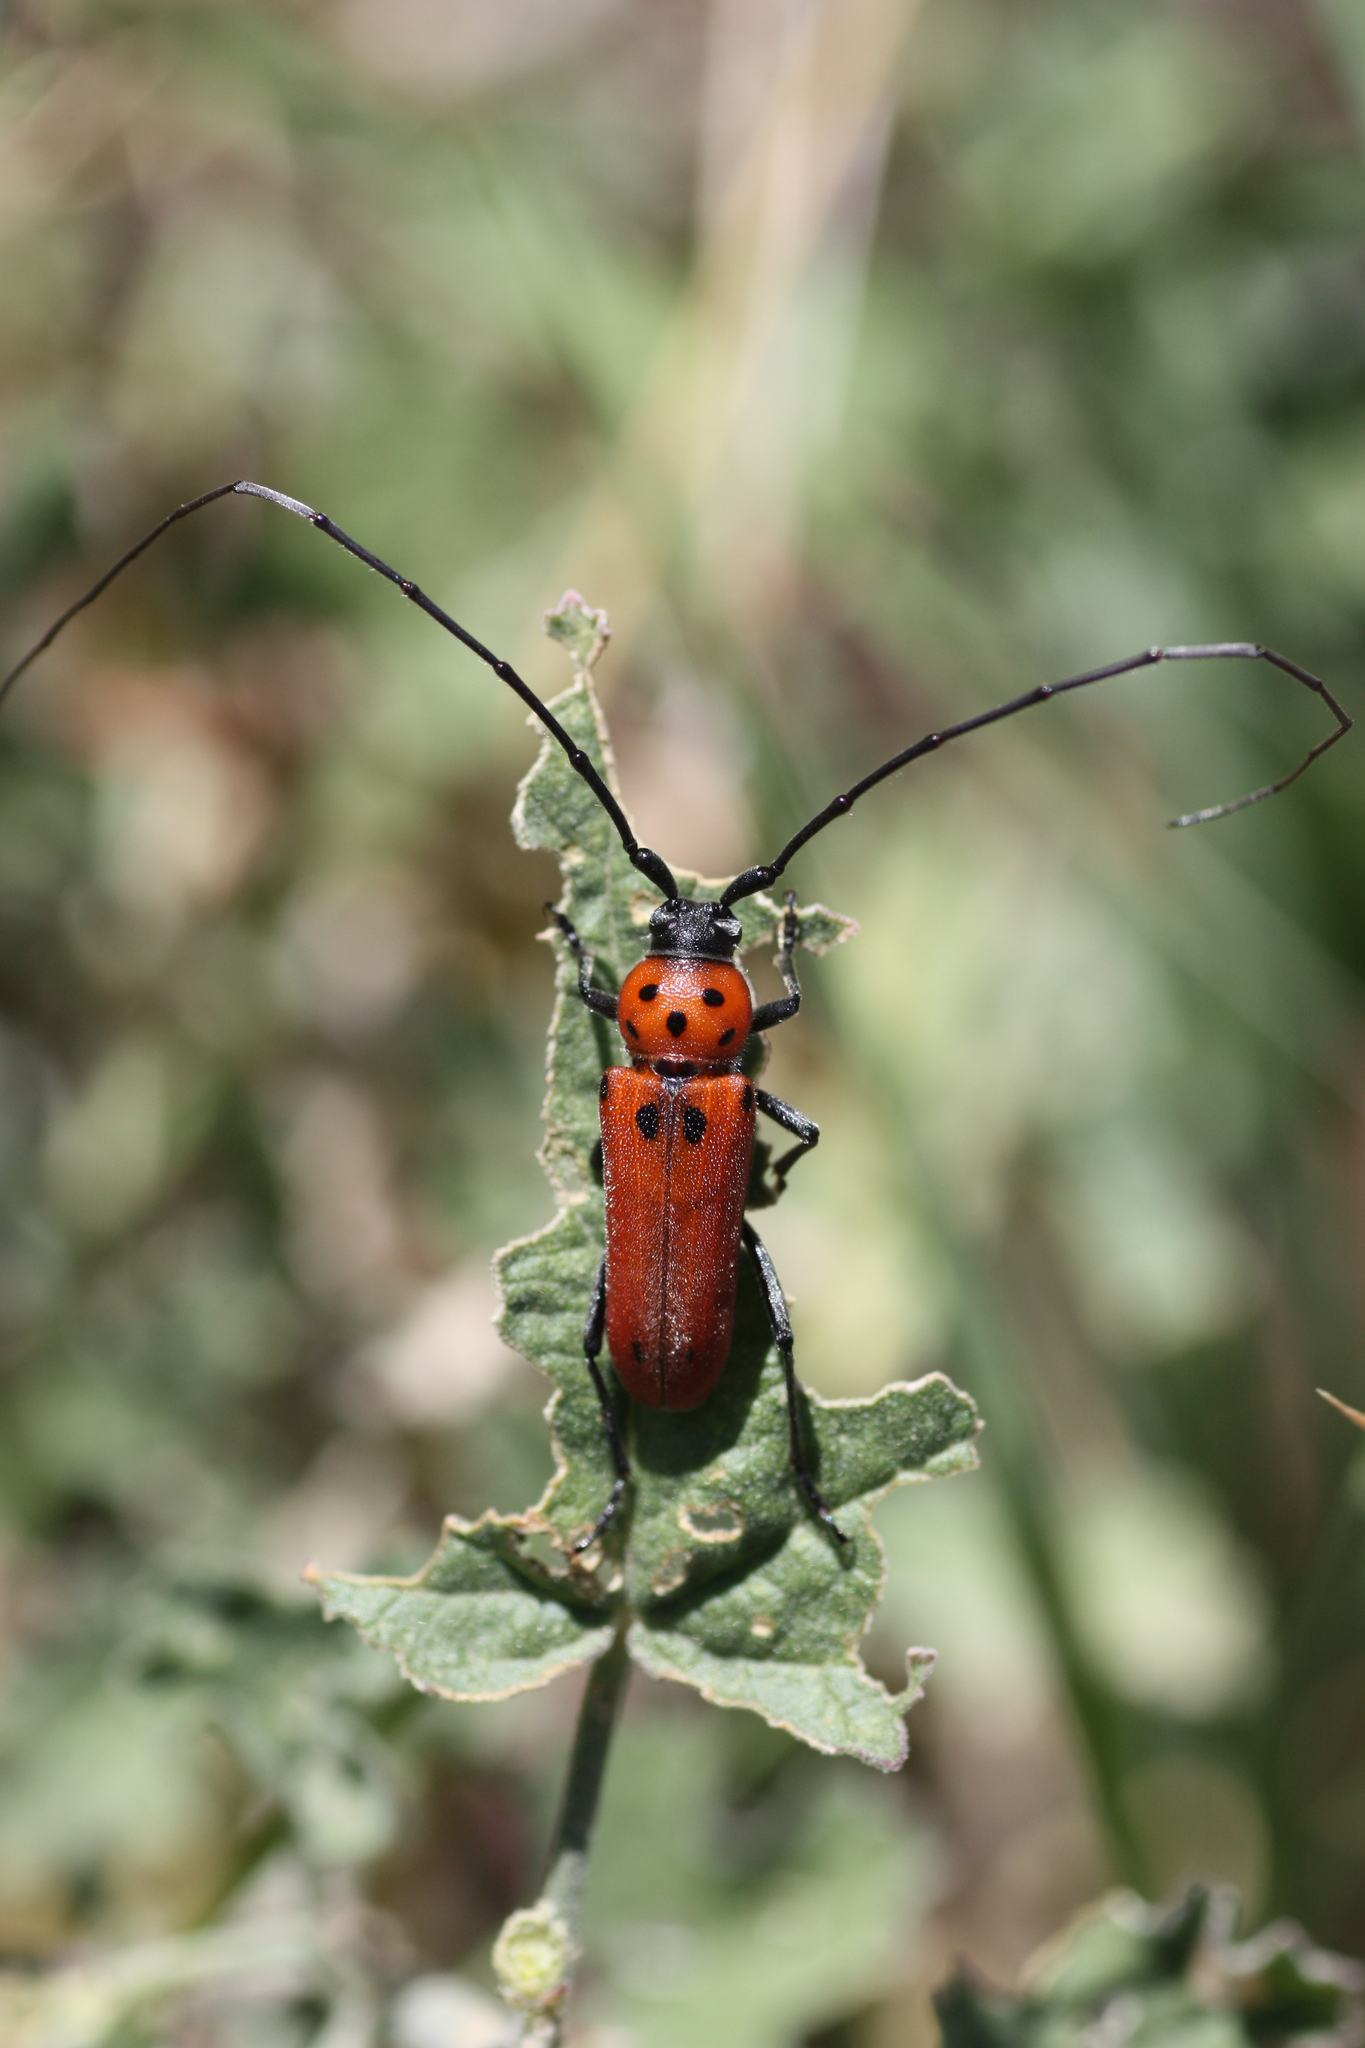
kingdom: Animalia
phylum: Arthropoda
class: Insecta
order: Coleoptera
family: Cerambycidae
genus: Tylosis
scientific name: Tylosis maculatus
